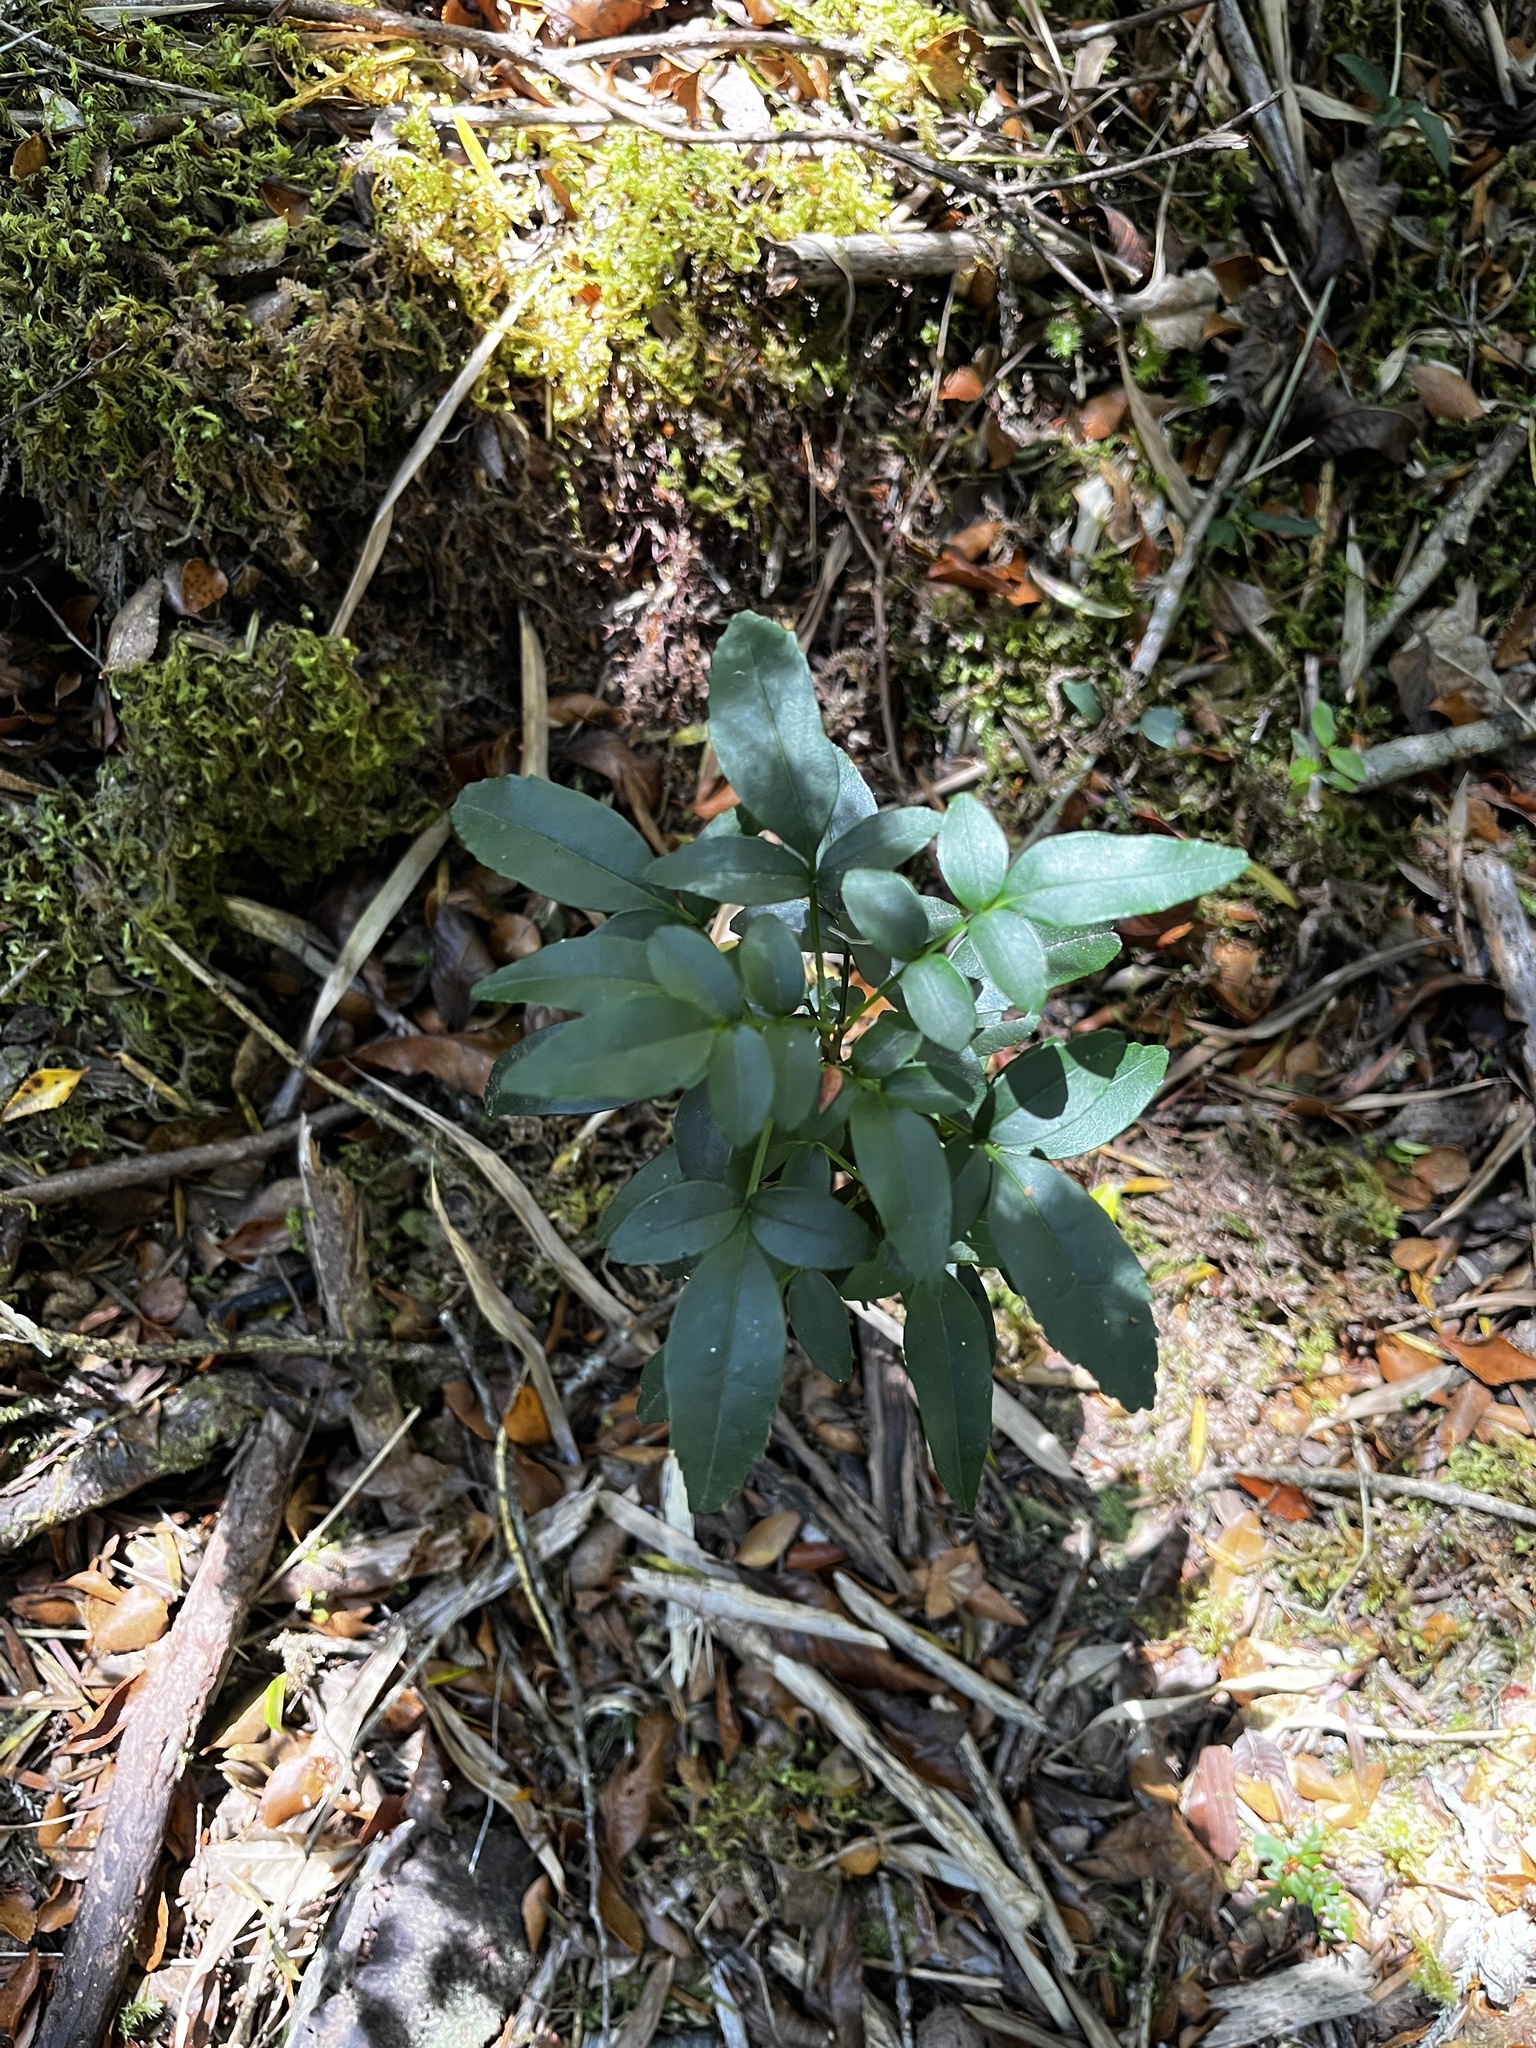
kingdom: Plantae
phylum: Tracheophyta
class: Magnoliopsida
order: Lamiales
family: Bignoniaceae
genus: Campsidium
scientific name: Campsidium valdivianum
